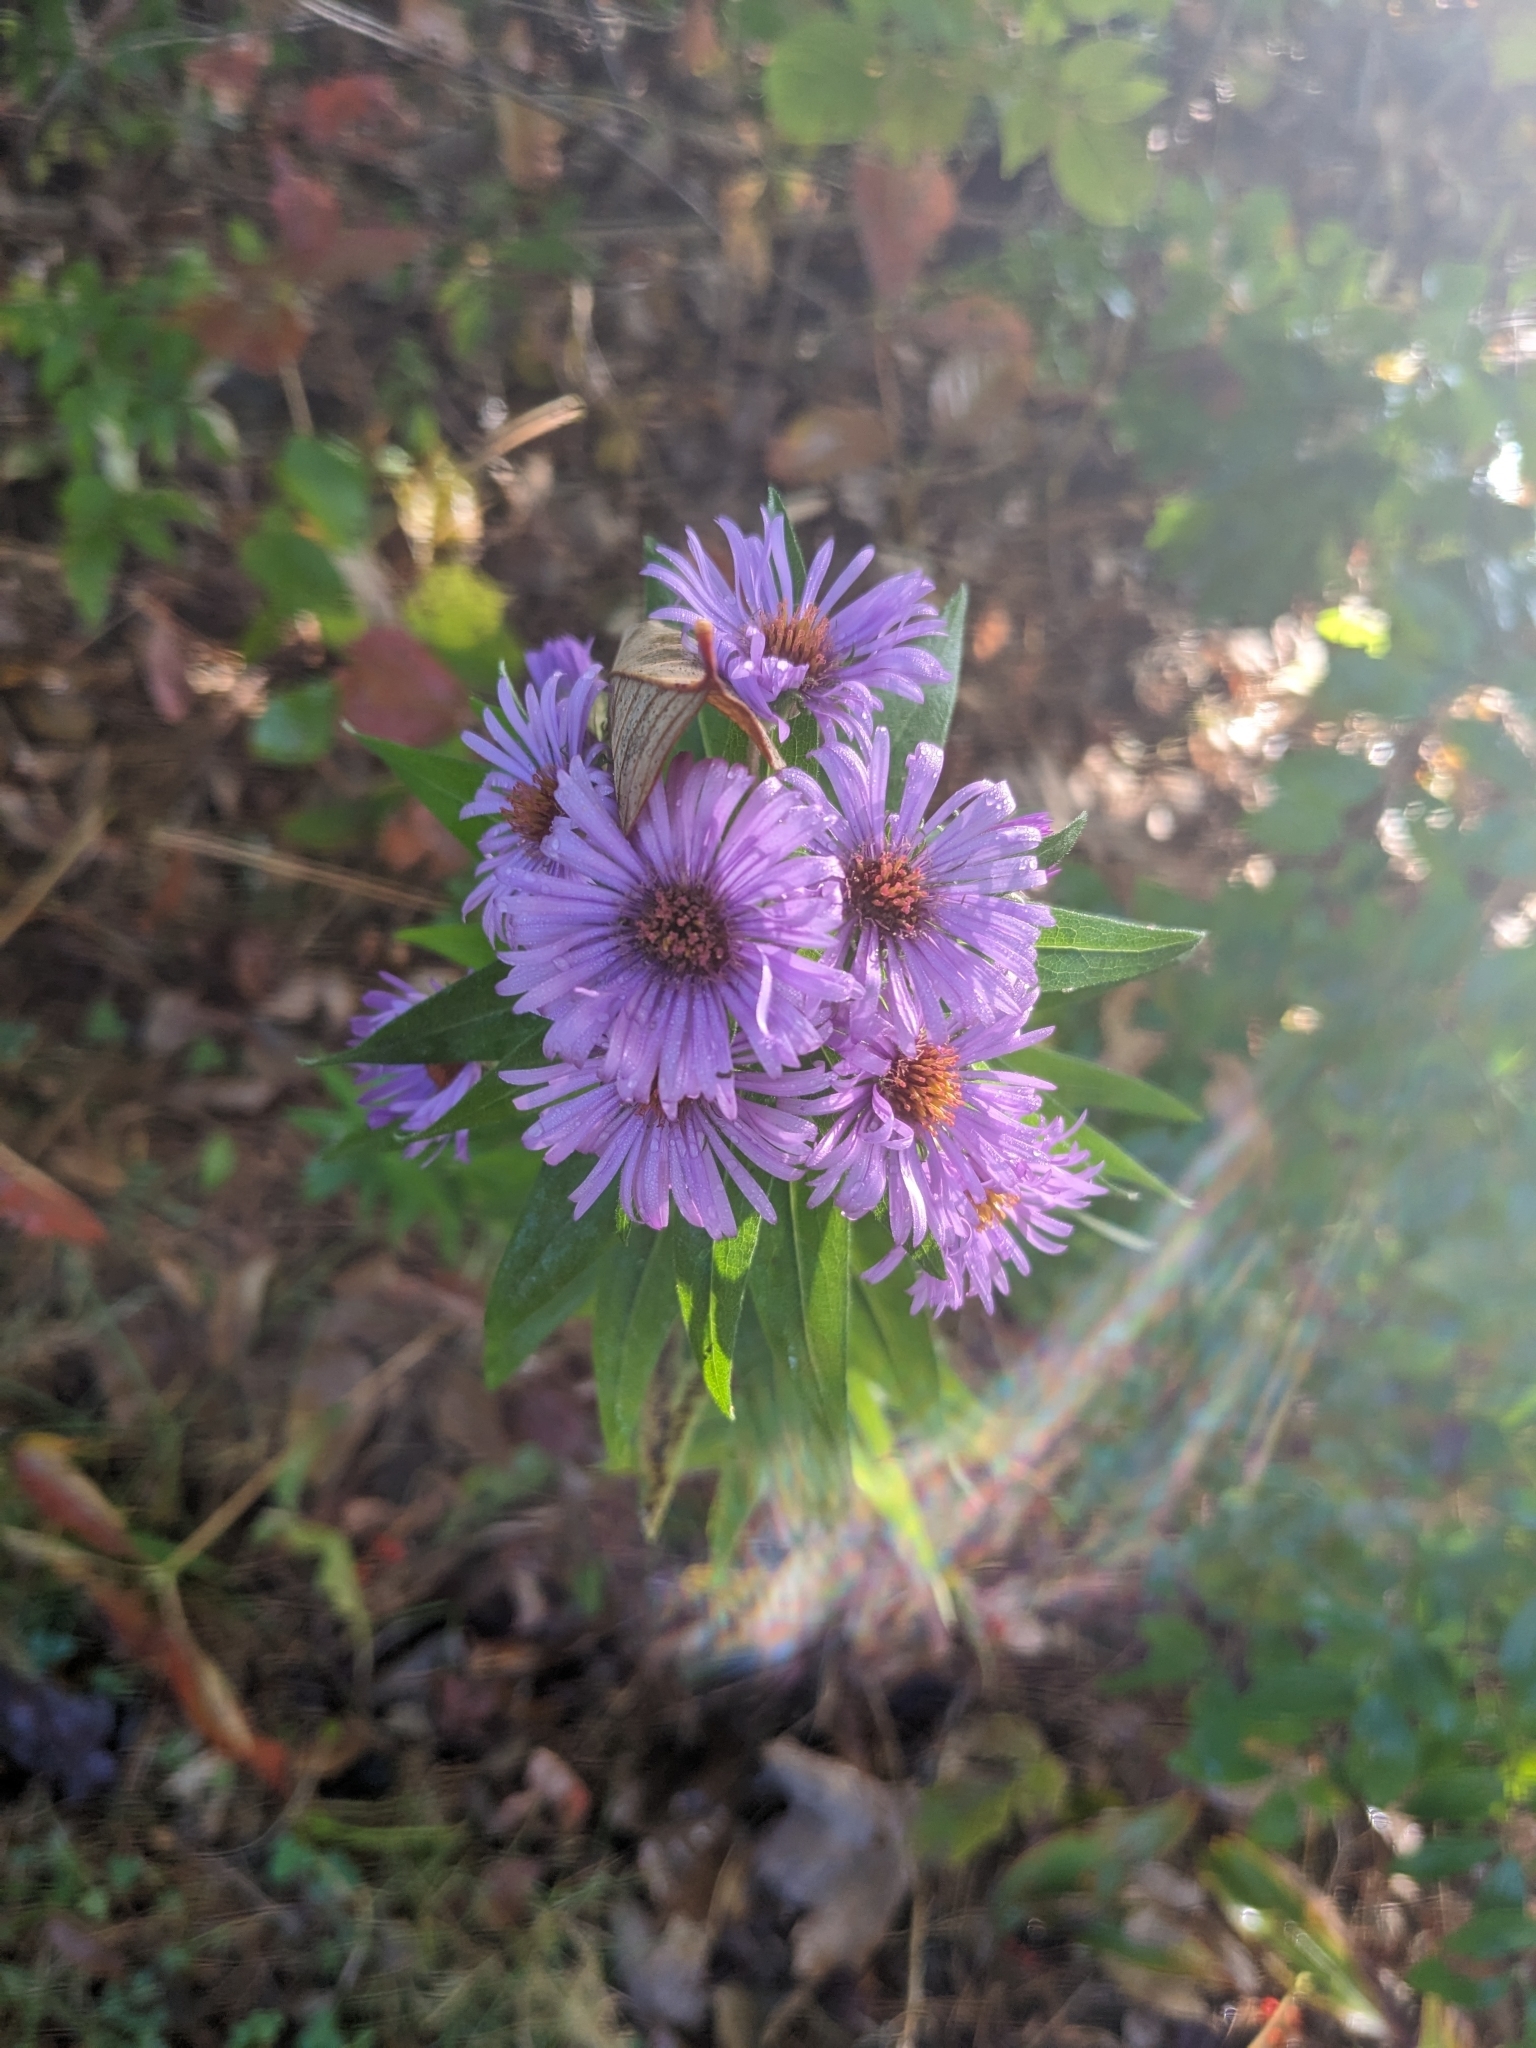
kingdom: Plantae
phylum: Tracheophyta
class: Magnoliopsida
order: Asterales
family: Asteraceae
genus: Symphyotrichum
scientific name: Symphyotrichum novae-angliae
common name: Michaelmas daisy
